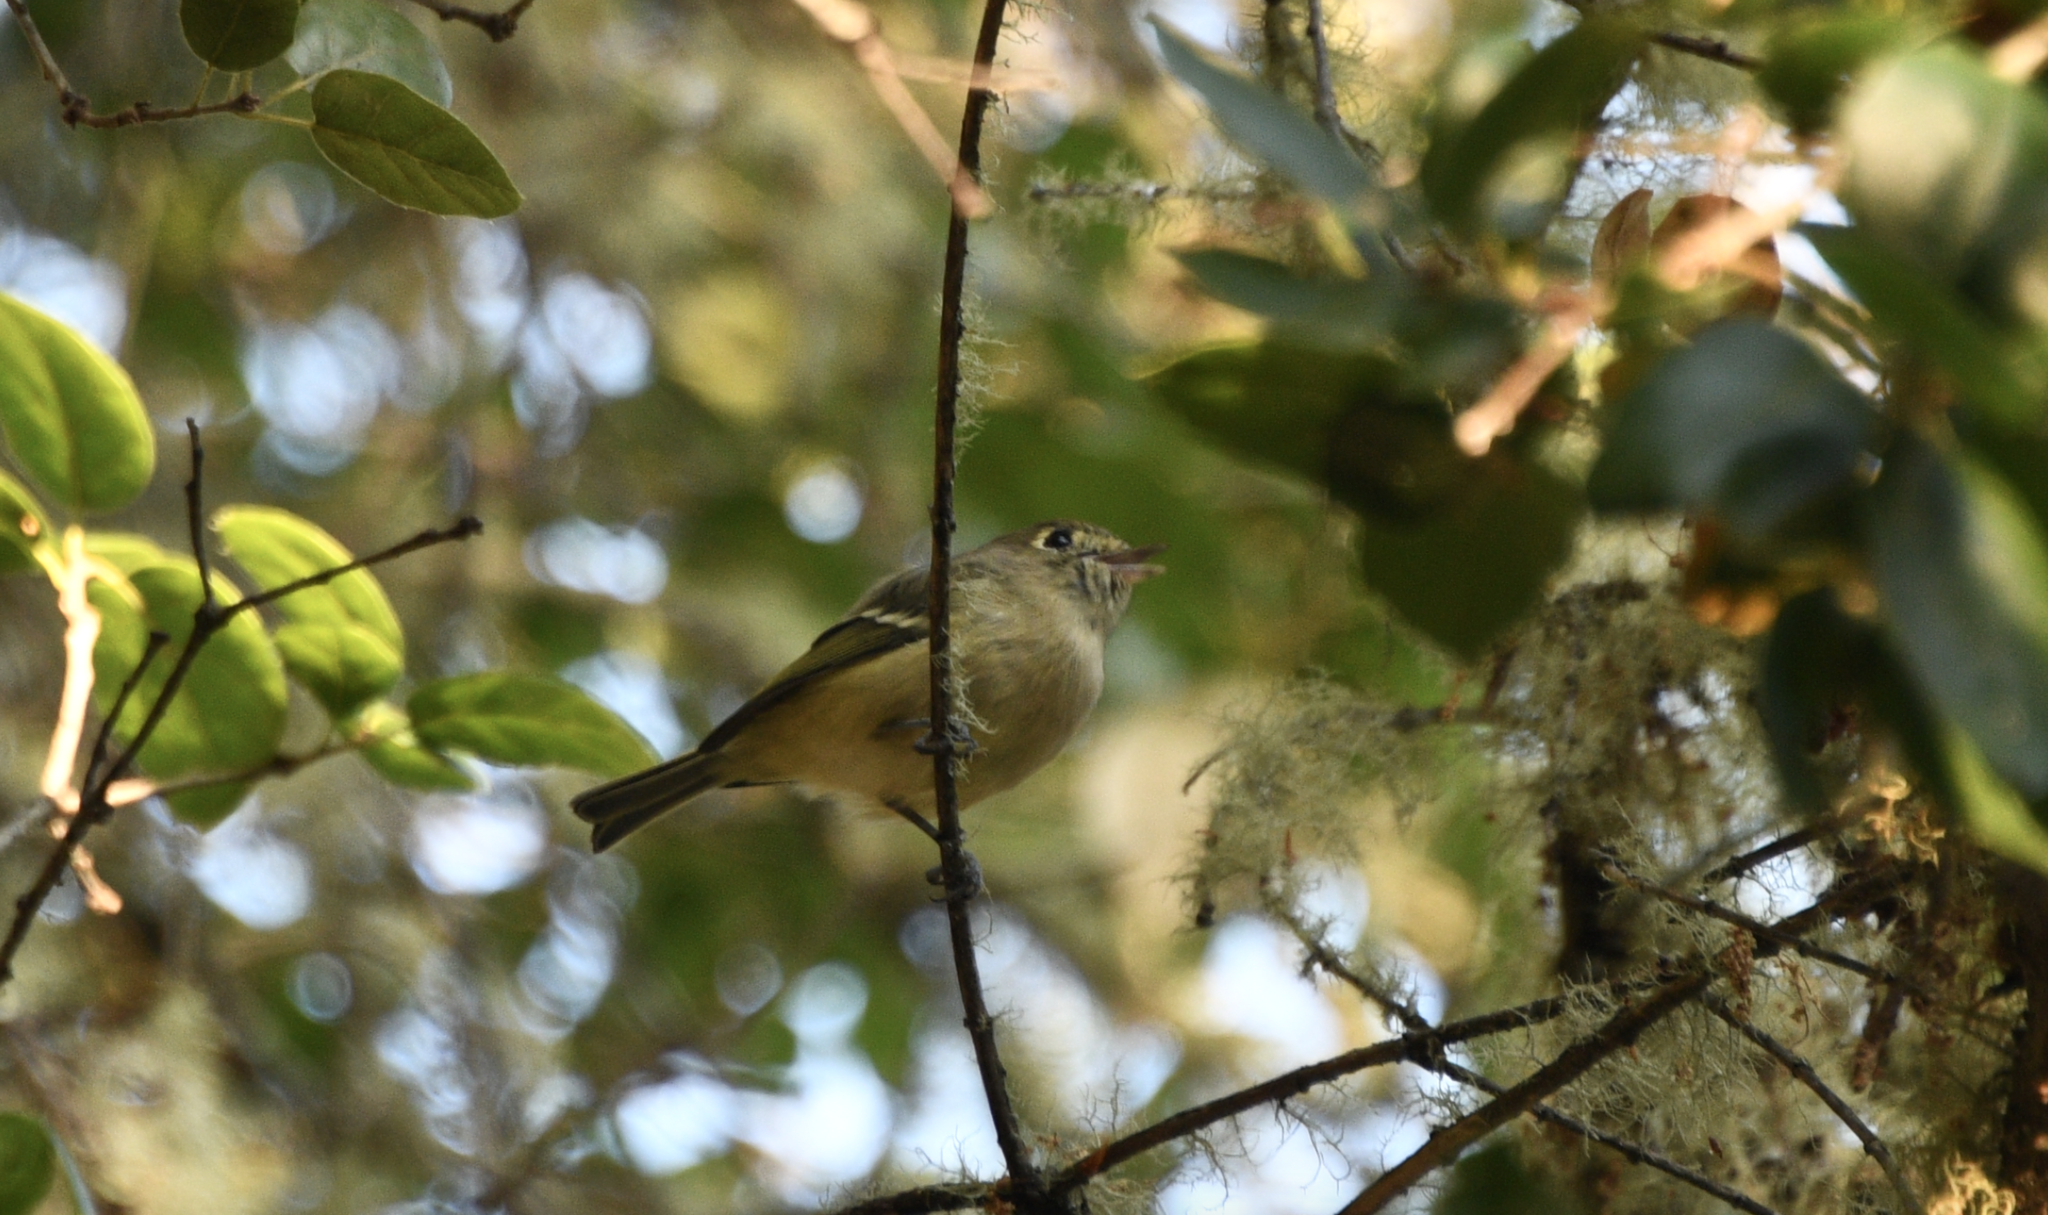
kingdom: Animalia
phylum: Chordata
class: Aves
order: Passeriformes
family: Vireonidae
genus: Vireo
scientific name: Vireo huttoni
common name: Hutton's vireo
